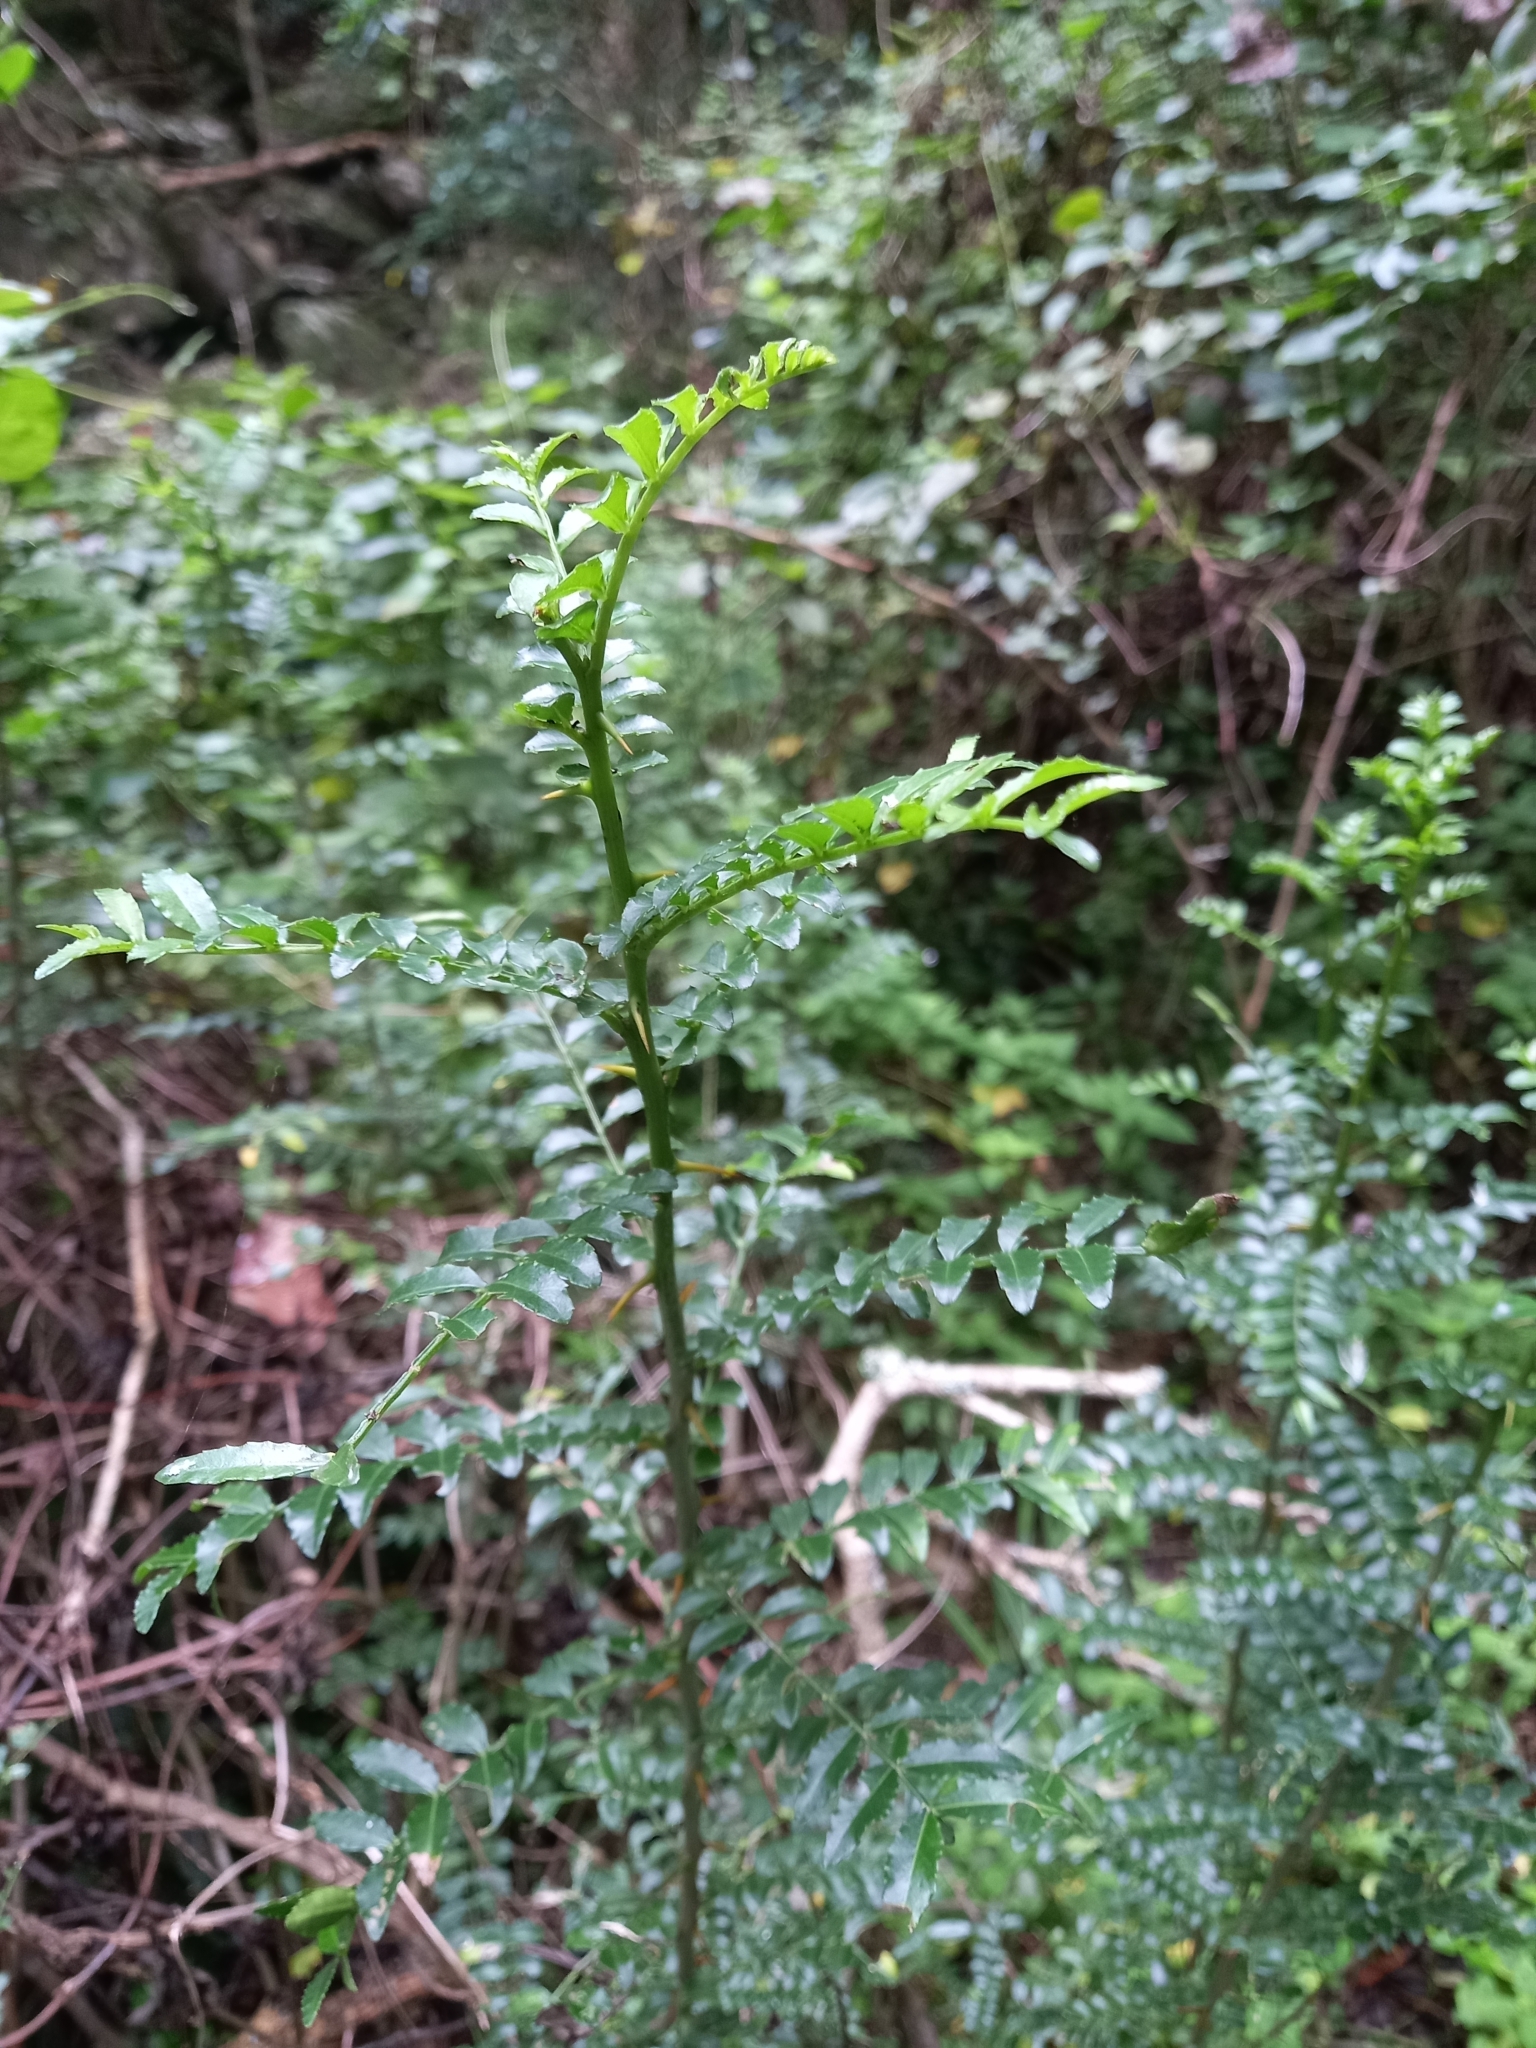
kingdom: Plantae
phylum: Tracheophyta
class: Magnoliopsida
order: Sapindales
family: Rutaceae
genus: Zanthoxylum
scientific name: Zanthoxylum capense
